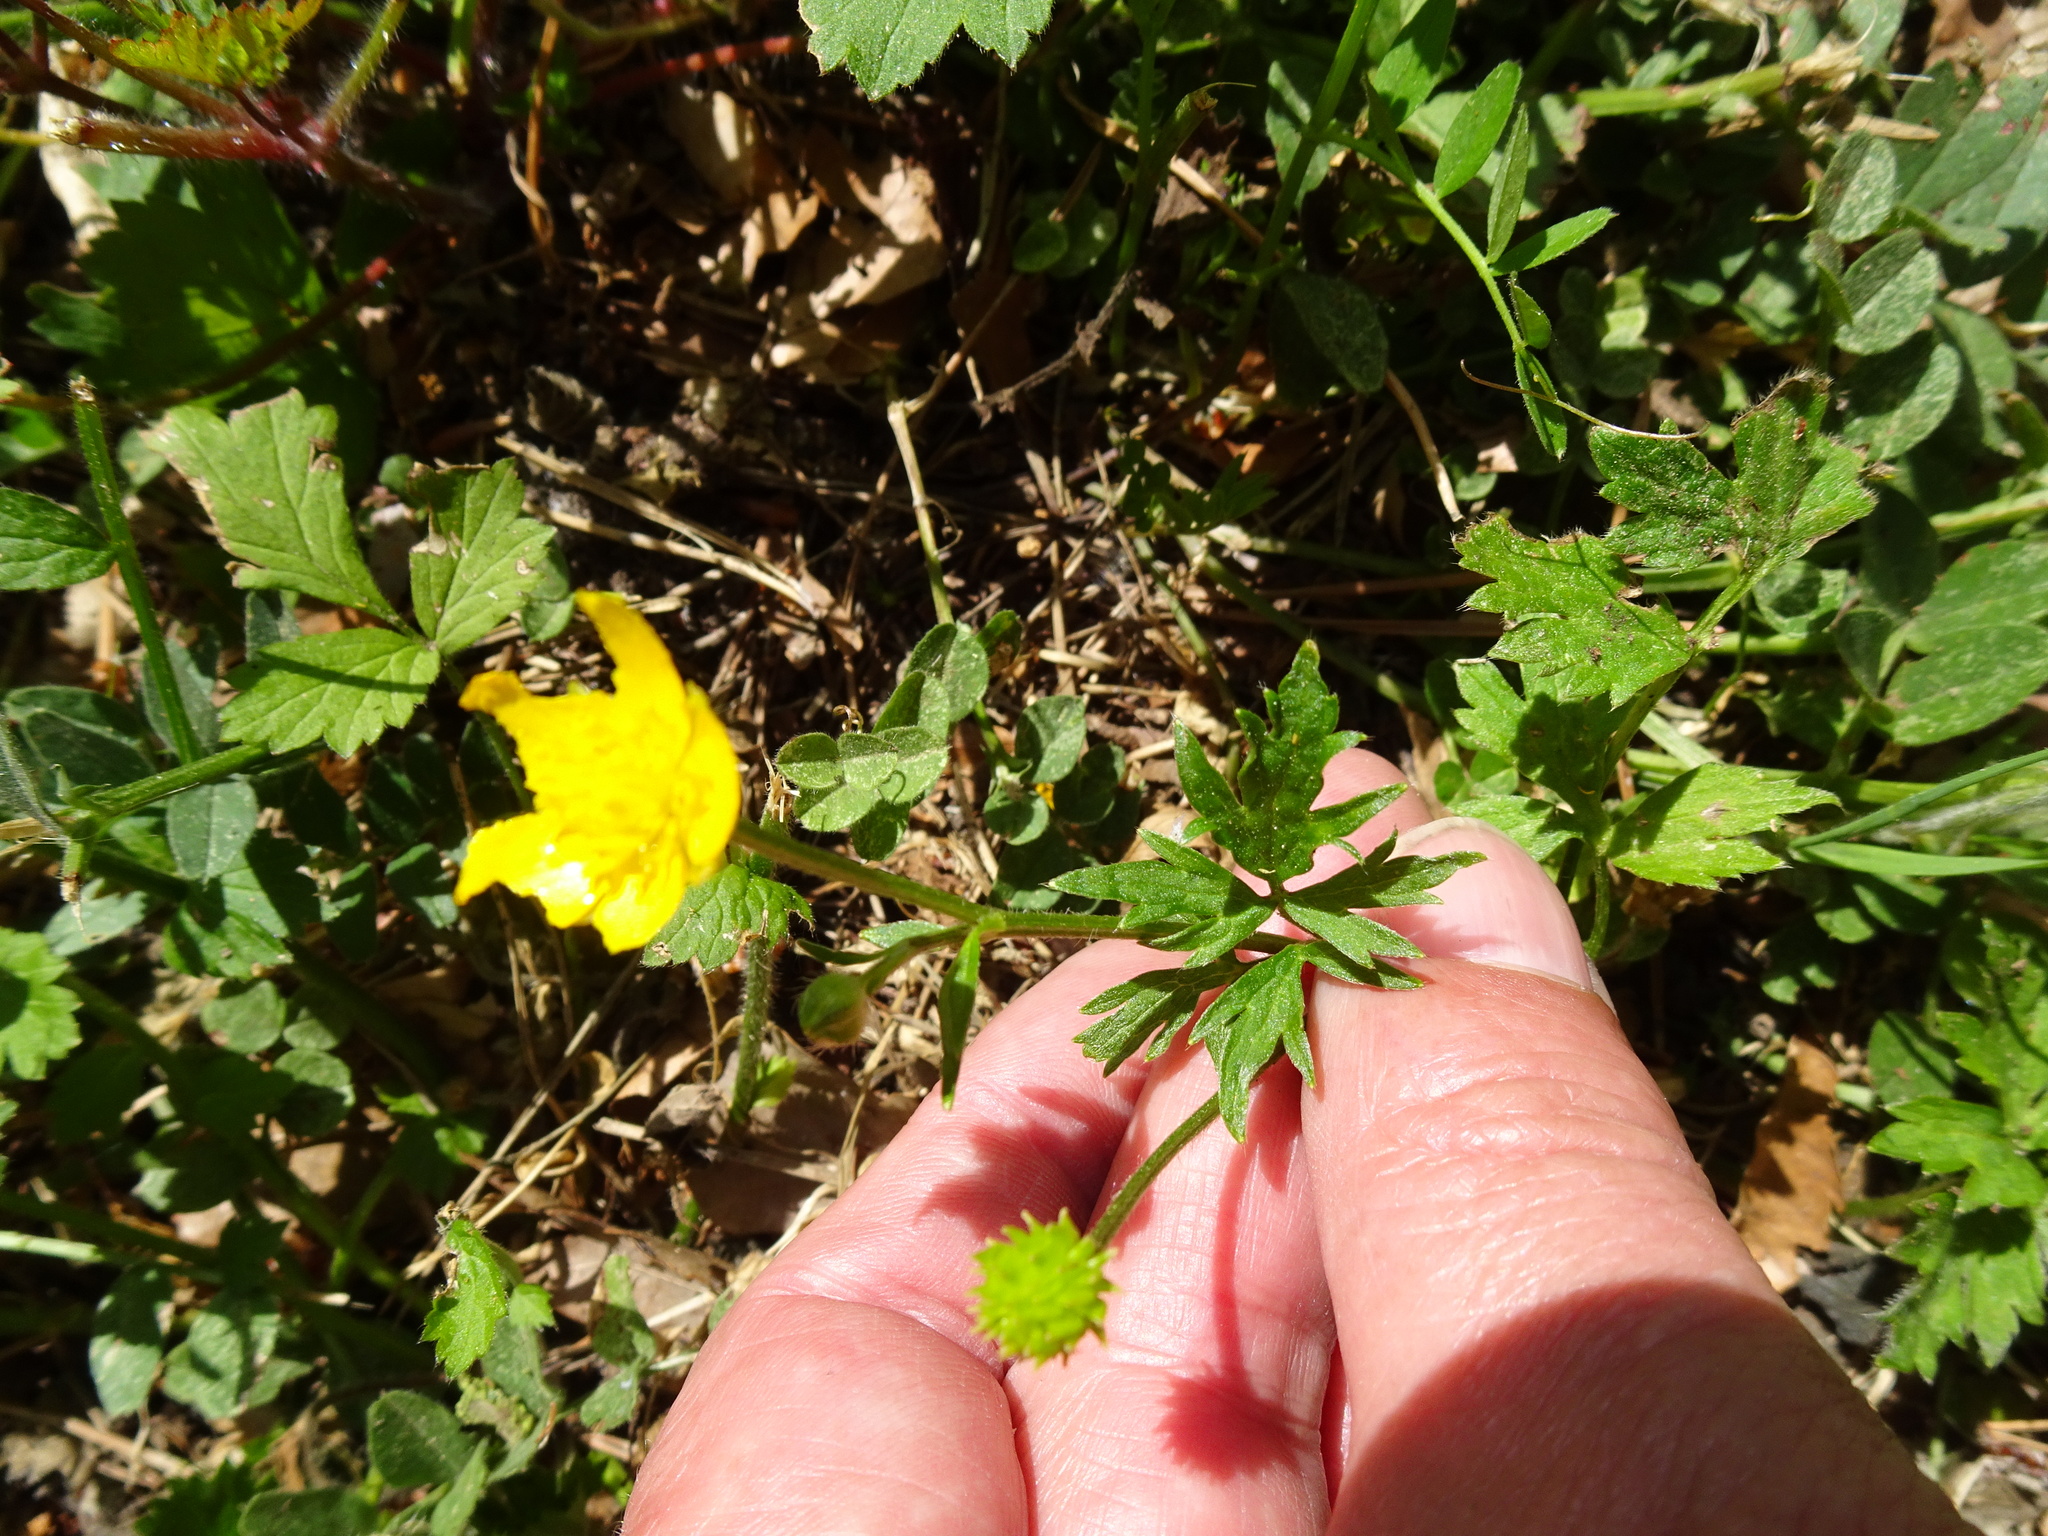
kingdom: Plantae
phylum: Tracheophyta
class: Magnoliopsida
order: Ranunculales
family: Ranunculaceae
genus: Ranunculus
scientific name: Ranunculus repens
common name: Creeping buttercup
